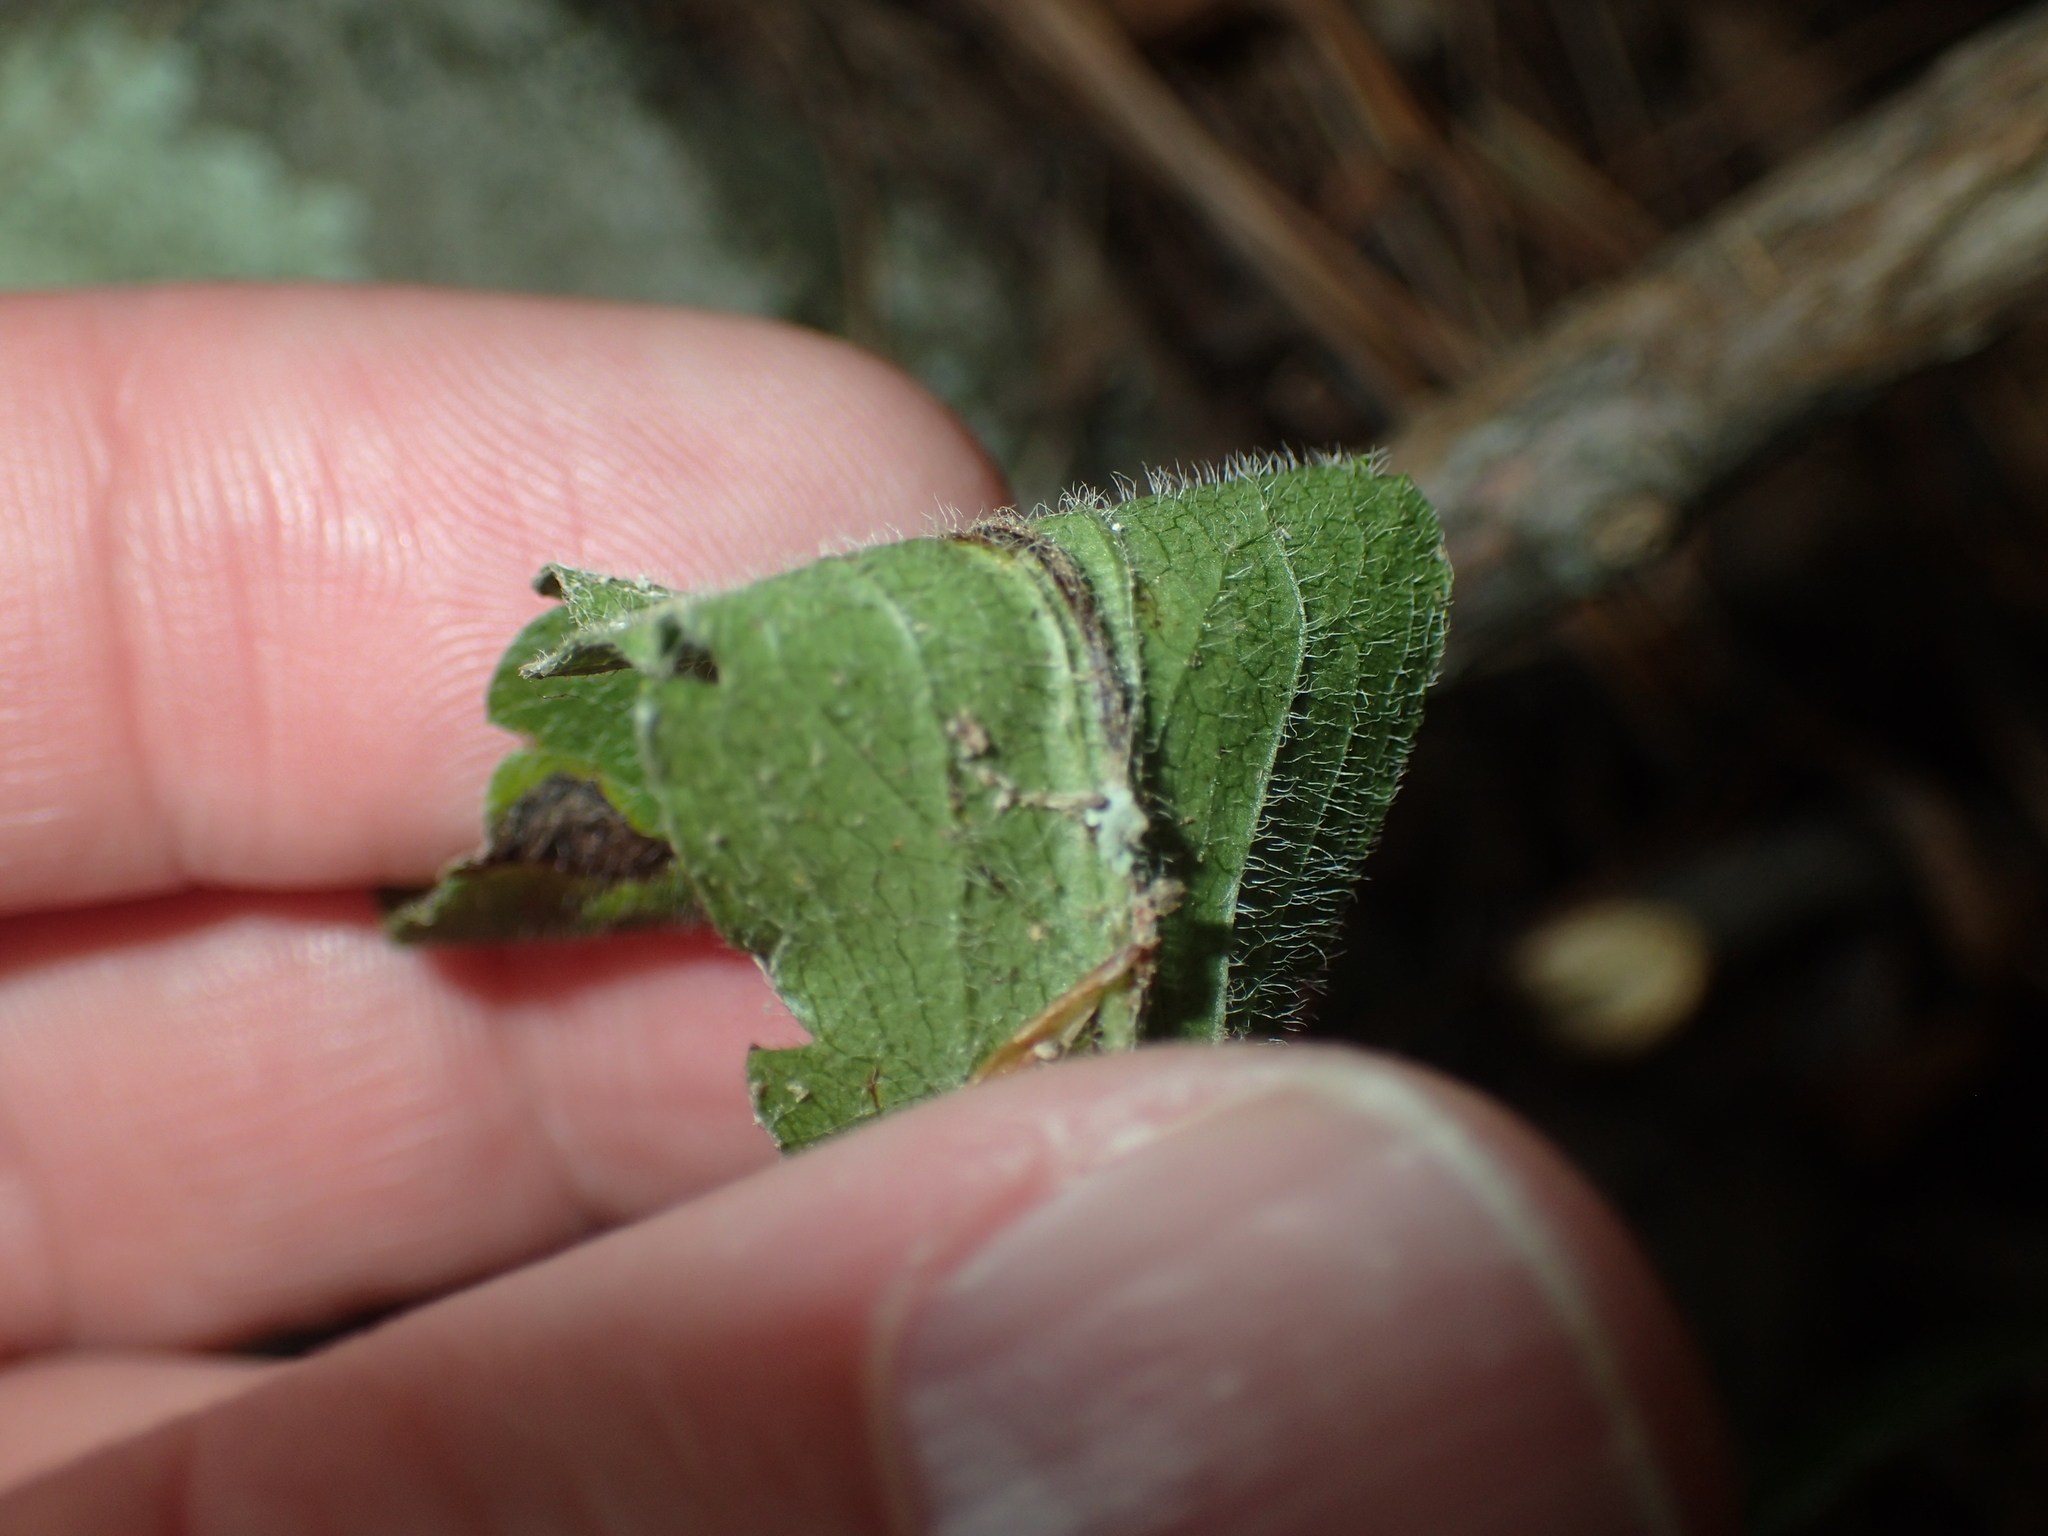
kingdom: Plantae
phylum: Tracheophyta
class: Magnoliopsida
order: Asterales
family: Asteraceae
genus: Solidago
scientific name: Solidago ulmifolia
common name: Elm-leaf goldenrod
